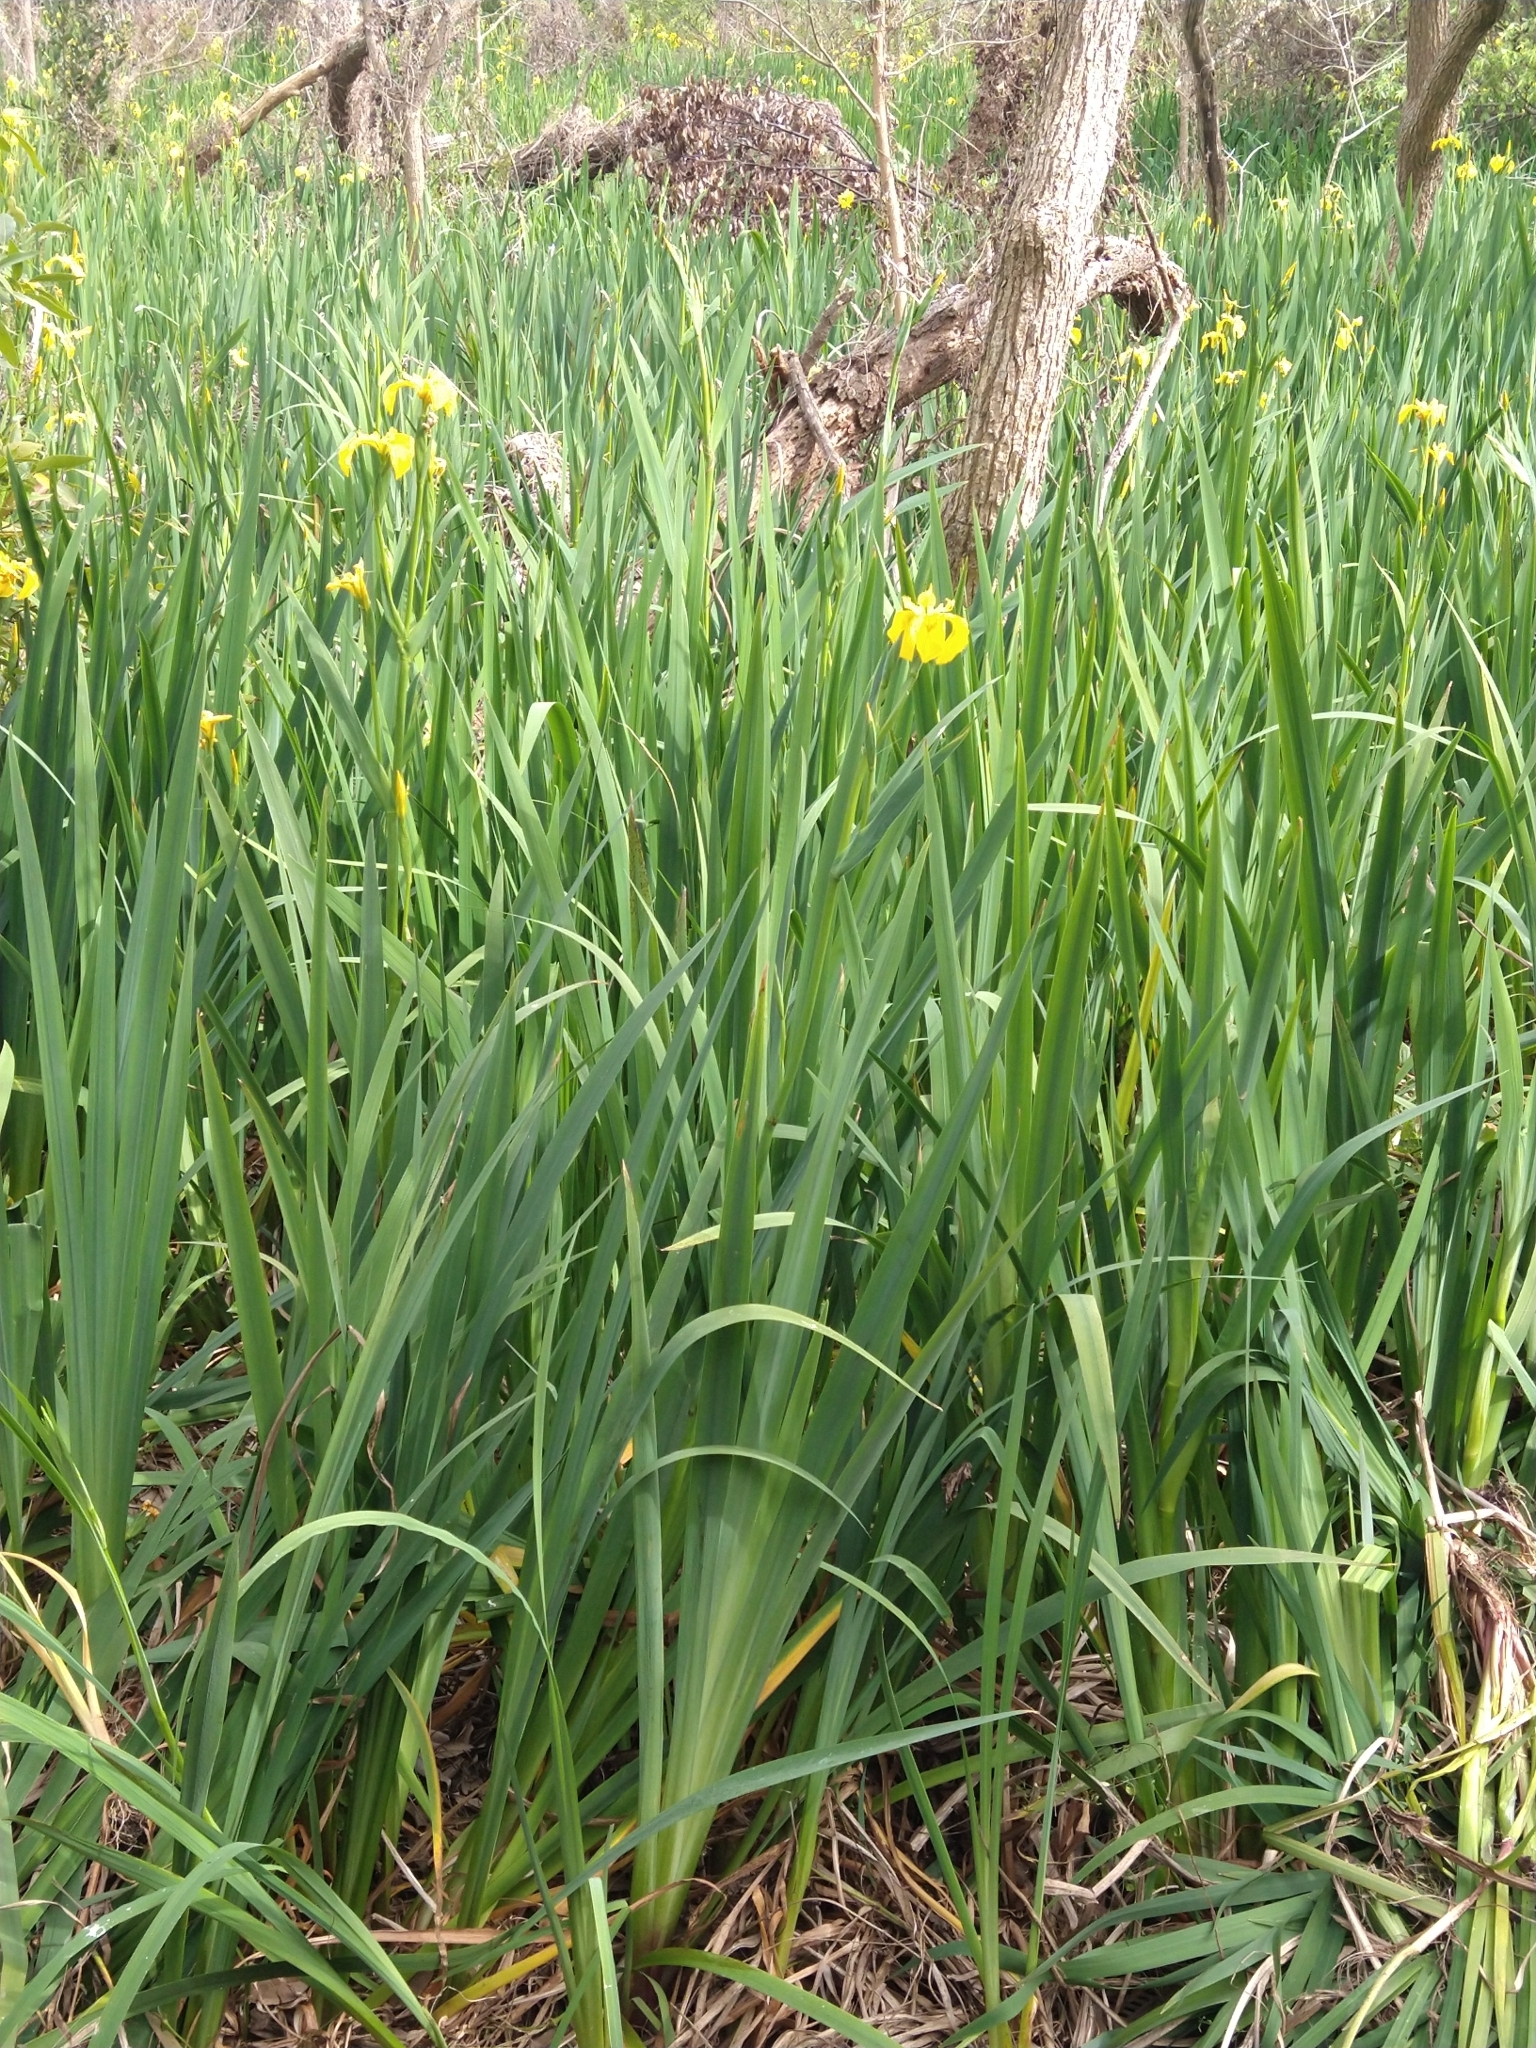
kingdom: Plantae
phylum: Tracheophyta
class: Liliopsida
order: Asparagales
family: Iridaceae
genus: Iris
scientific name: Iris pseudacorus
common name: Yellow flag
